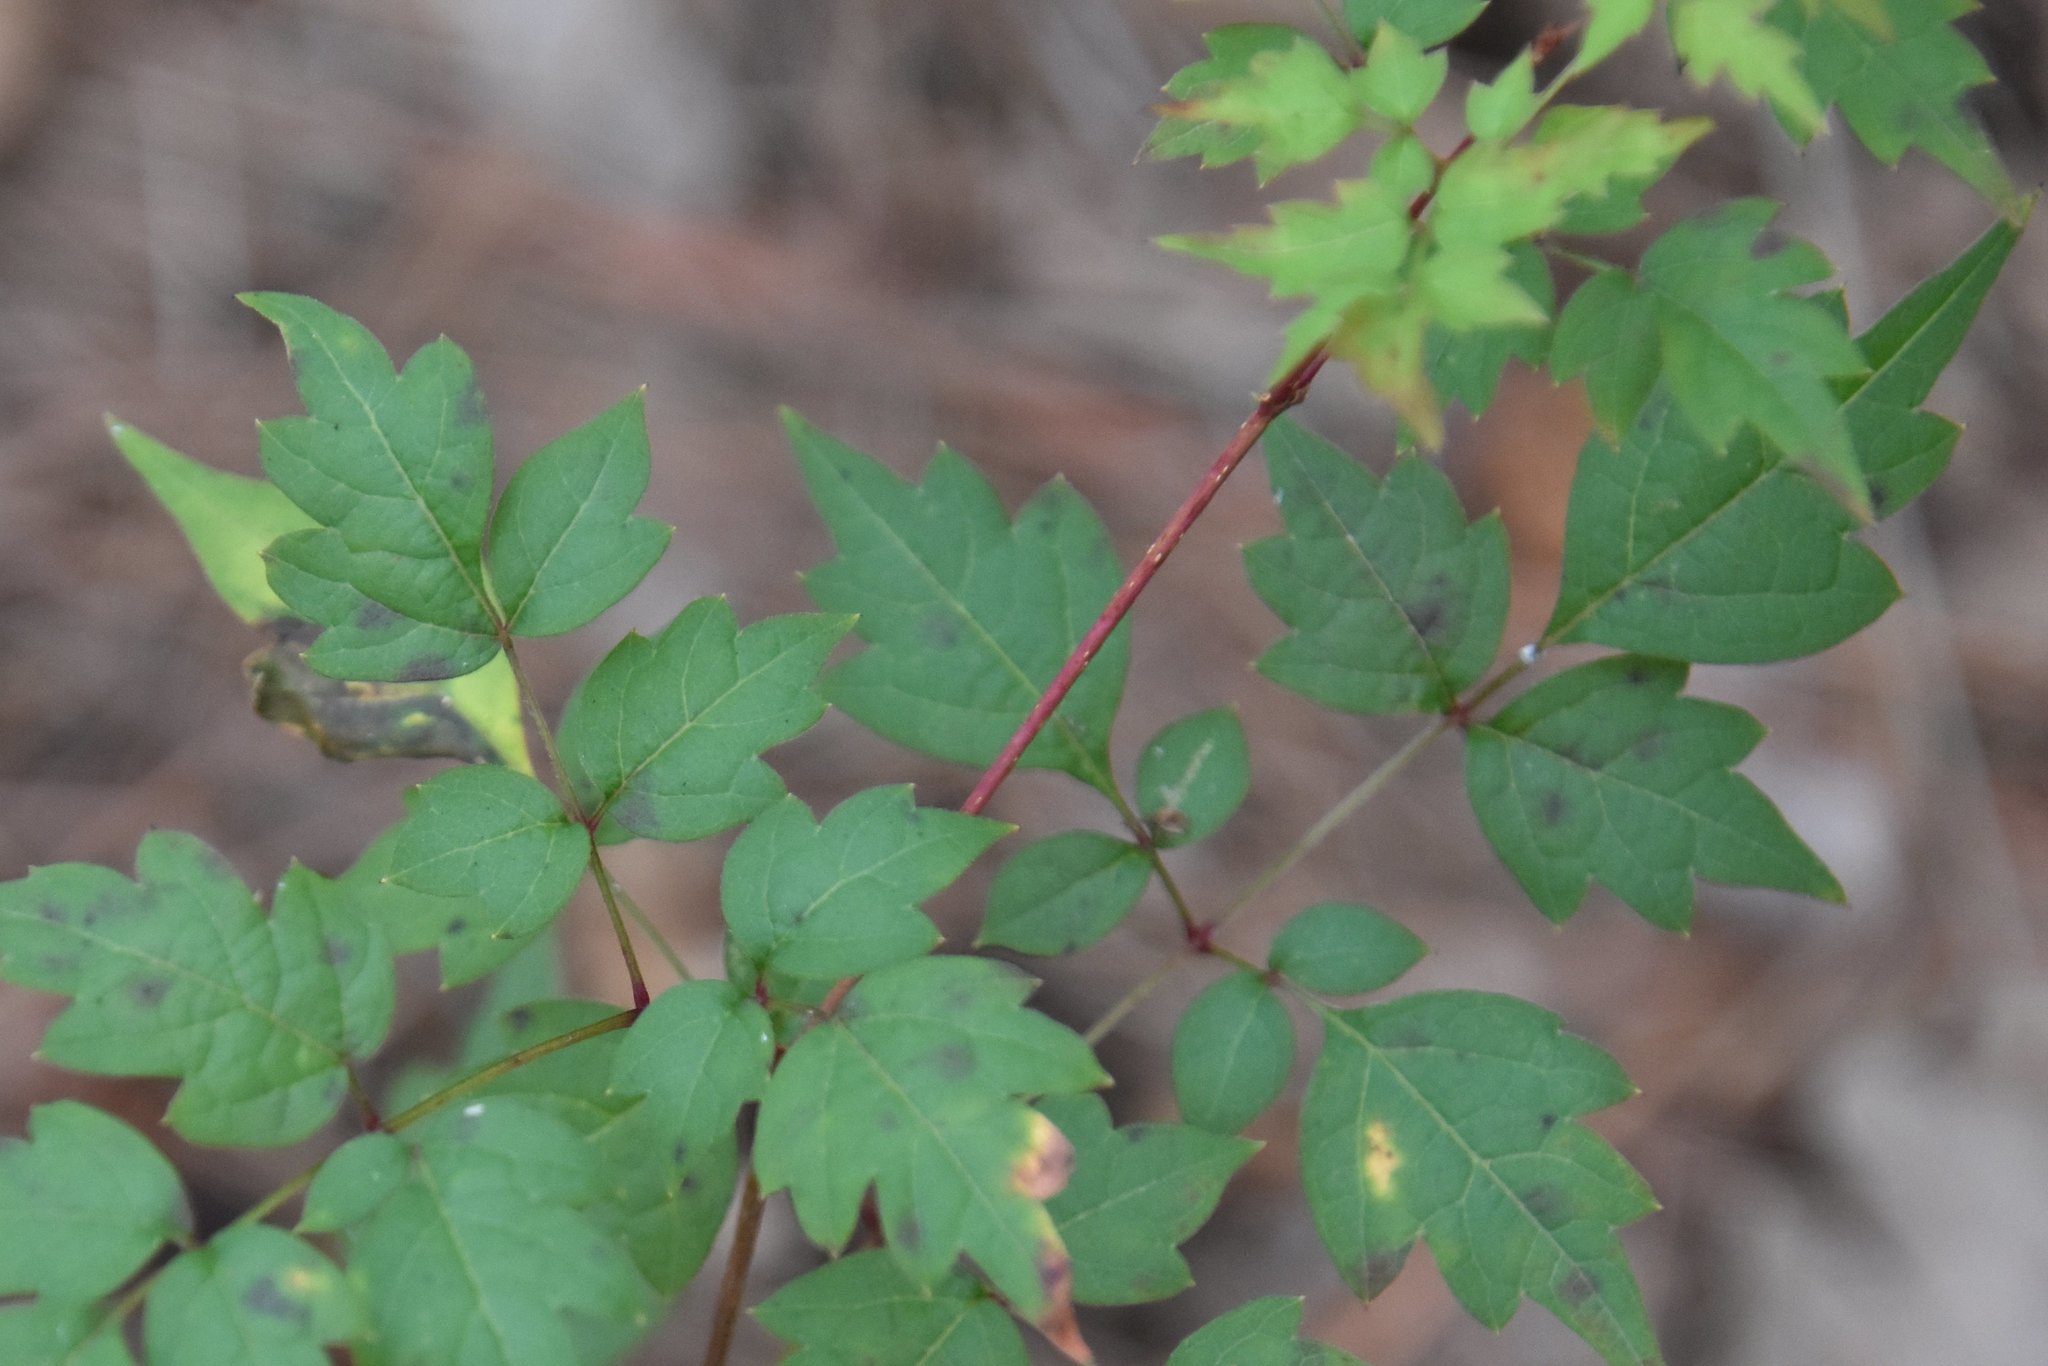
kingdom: Plantae
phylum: Tracheophyta
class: Magnoliopsida
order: Vitales
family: Vitaceae
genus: Nekemias
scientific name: Nekemias arborea
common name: Peppervine
